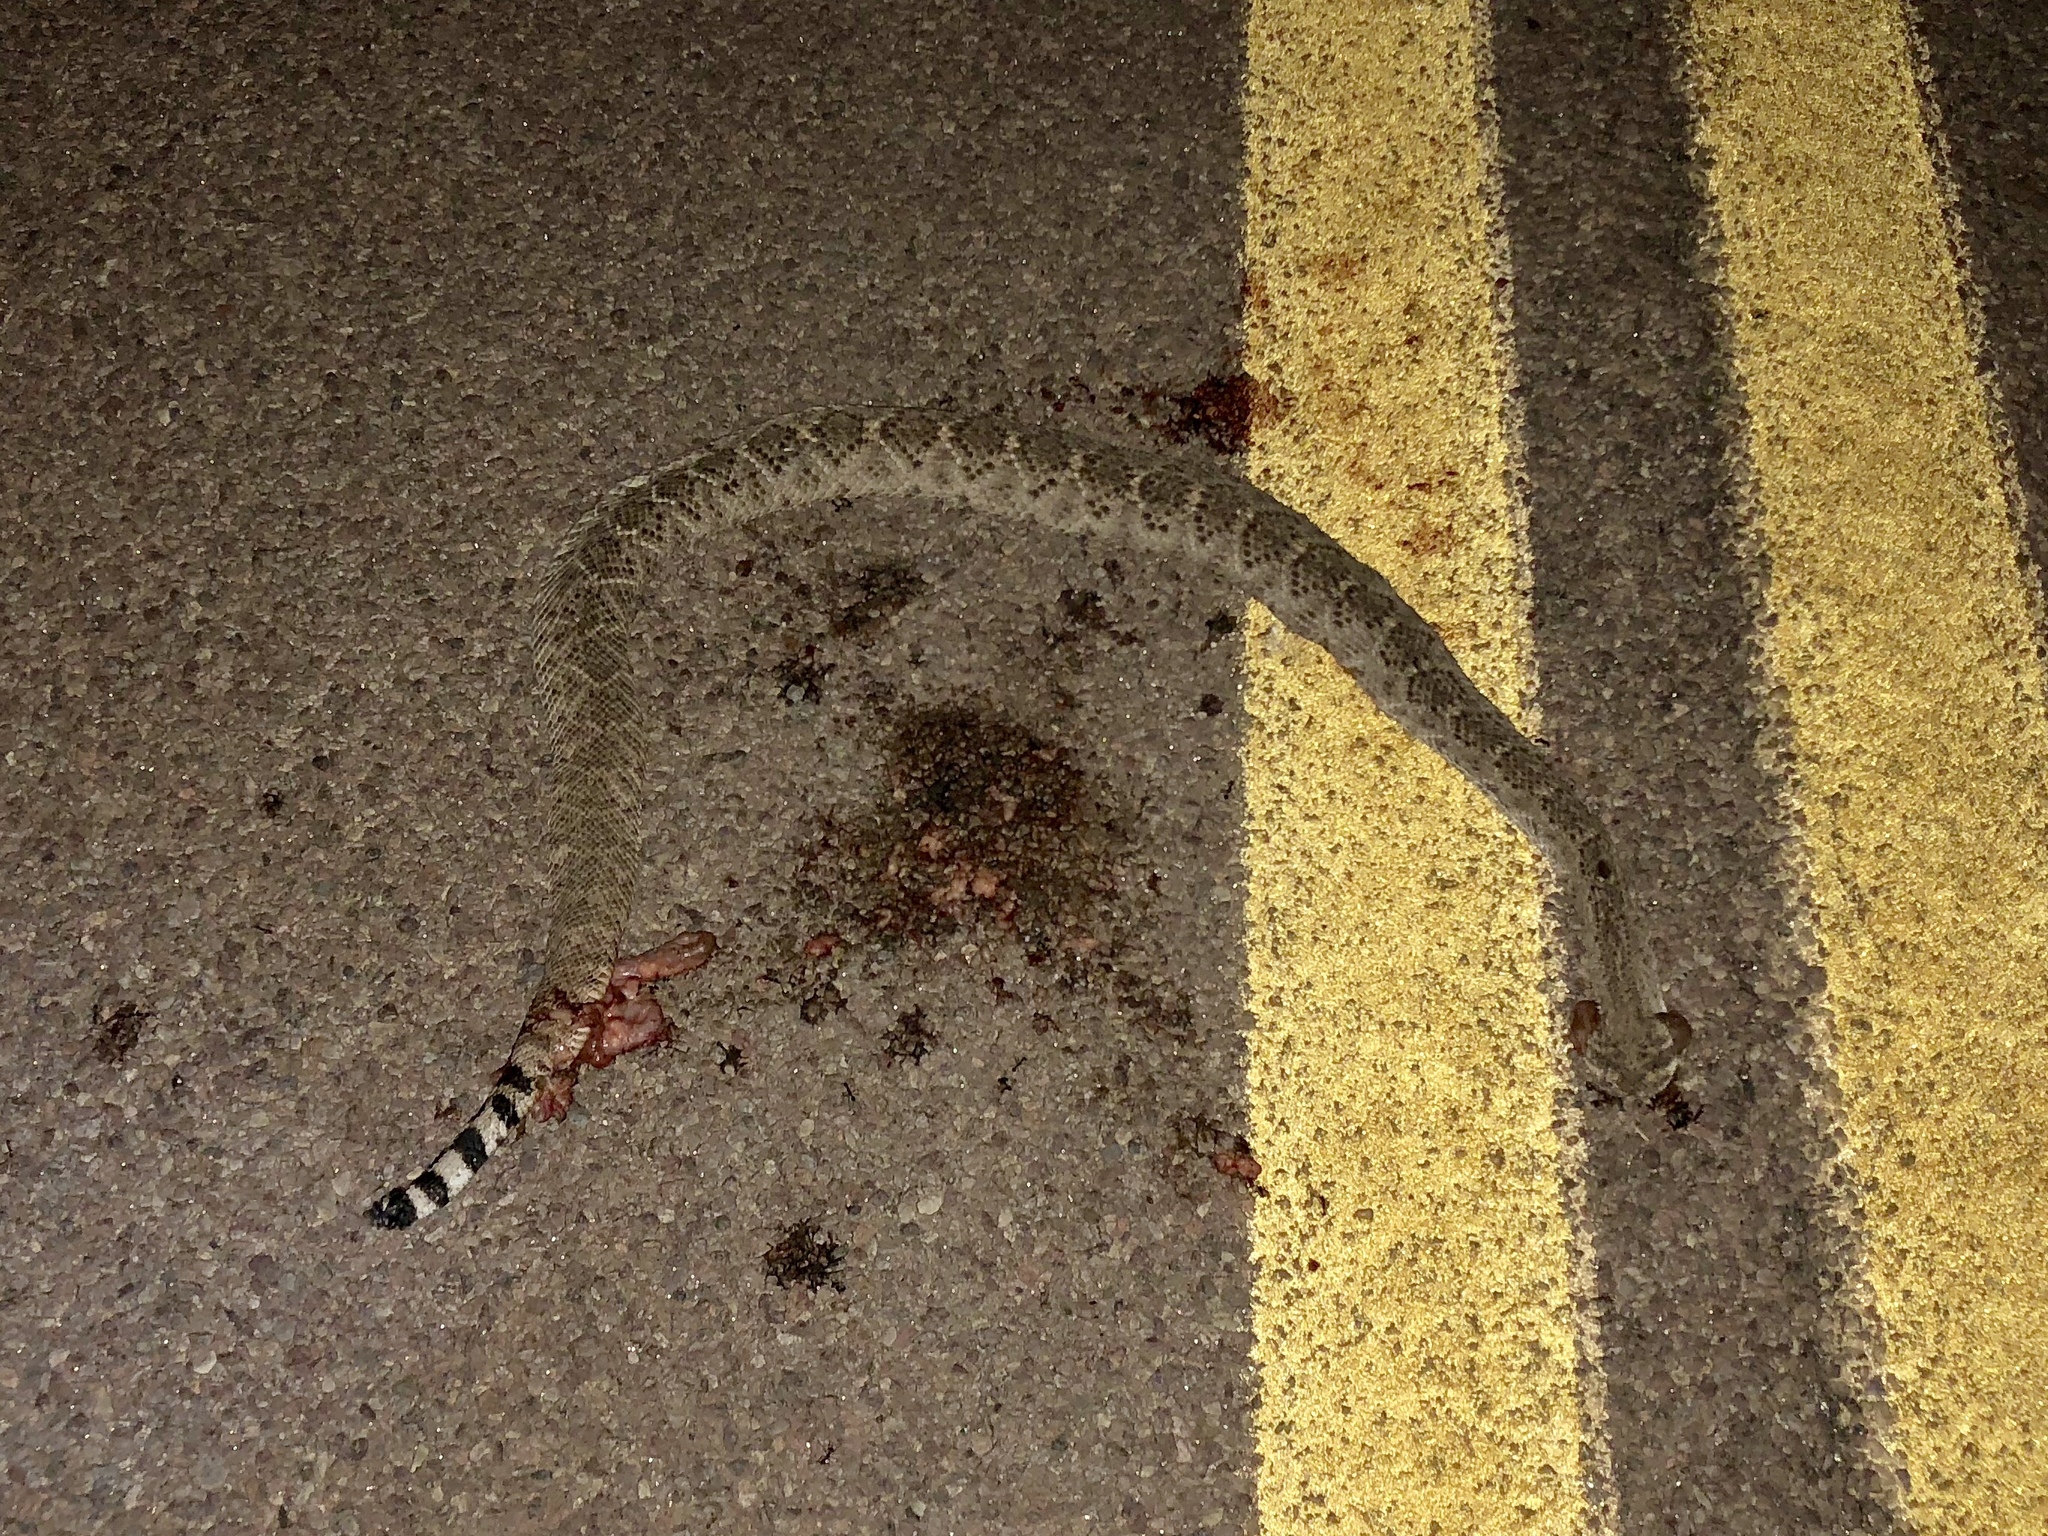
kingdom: Animalia
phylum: Chordata
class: Squamata
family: Viperidae
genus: Crotalus
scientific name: Crotalus atrox
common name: Western diamond-backed rattlesnake
